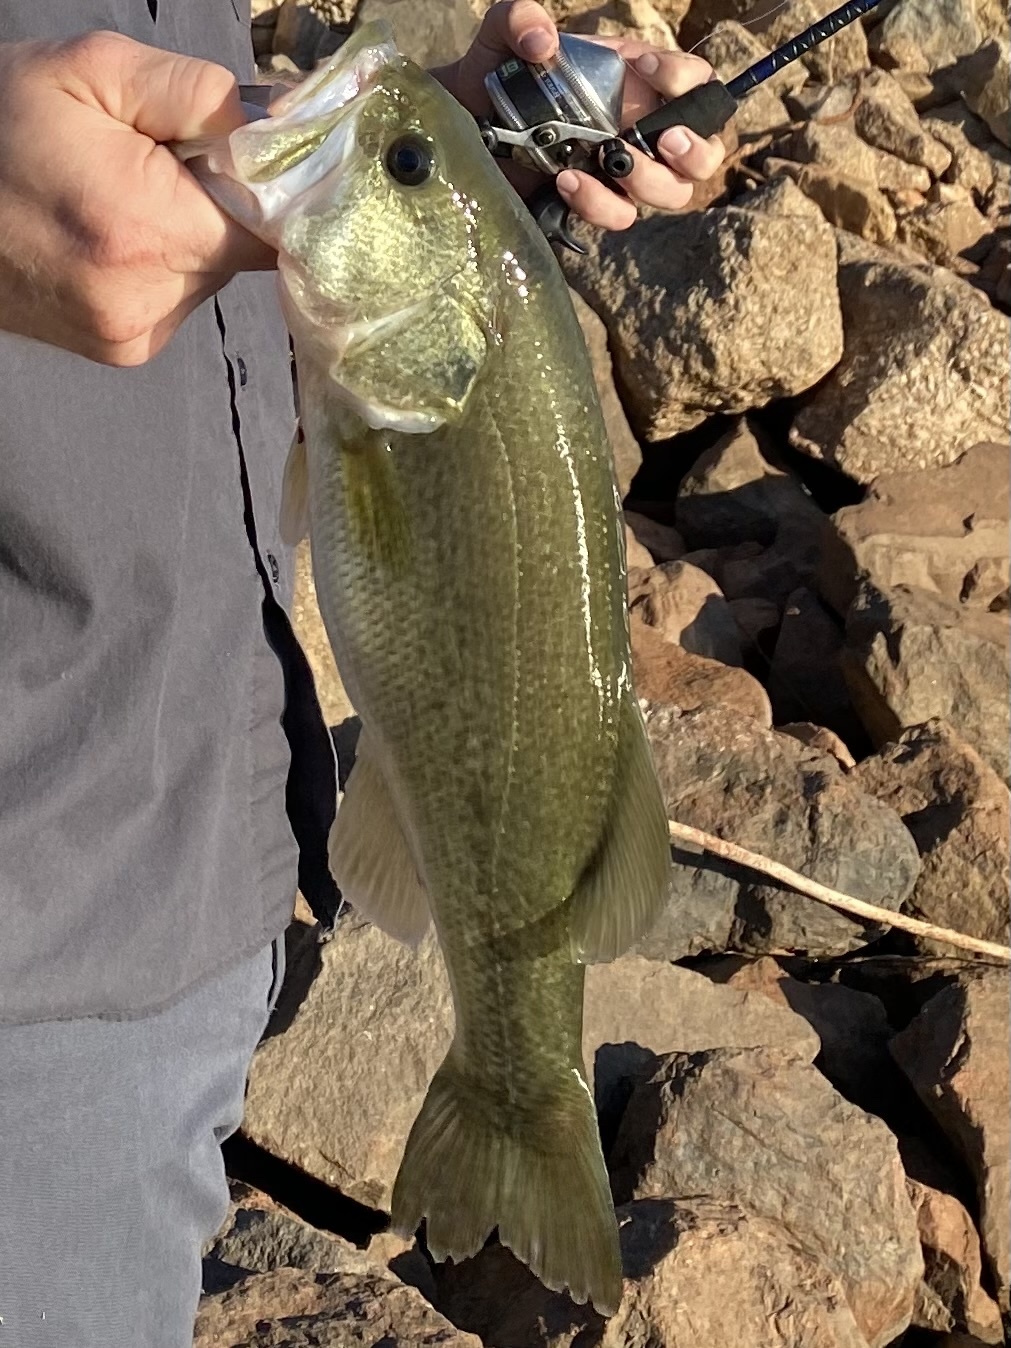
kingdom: Animalia
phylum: Chordata
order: Perciformes
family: Centrarchidae
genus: Micropterus
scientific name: Micropterus
